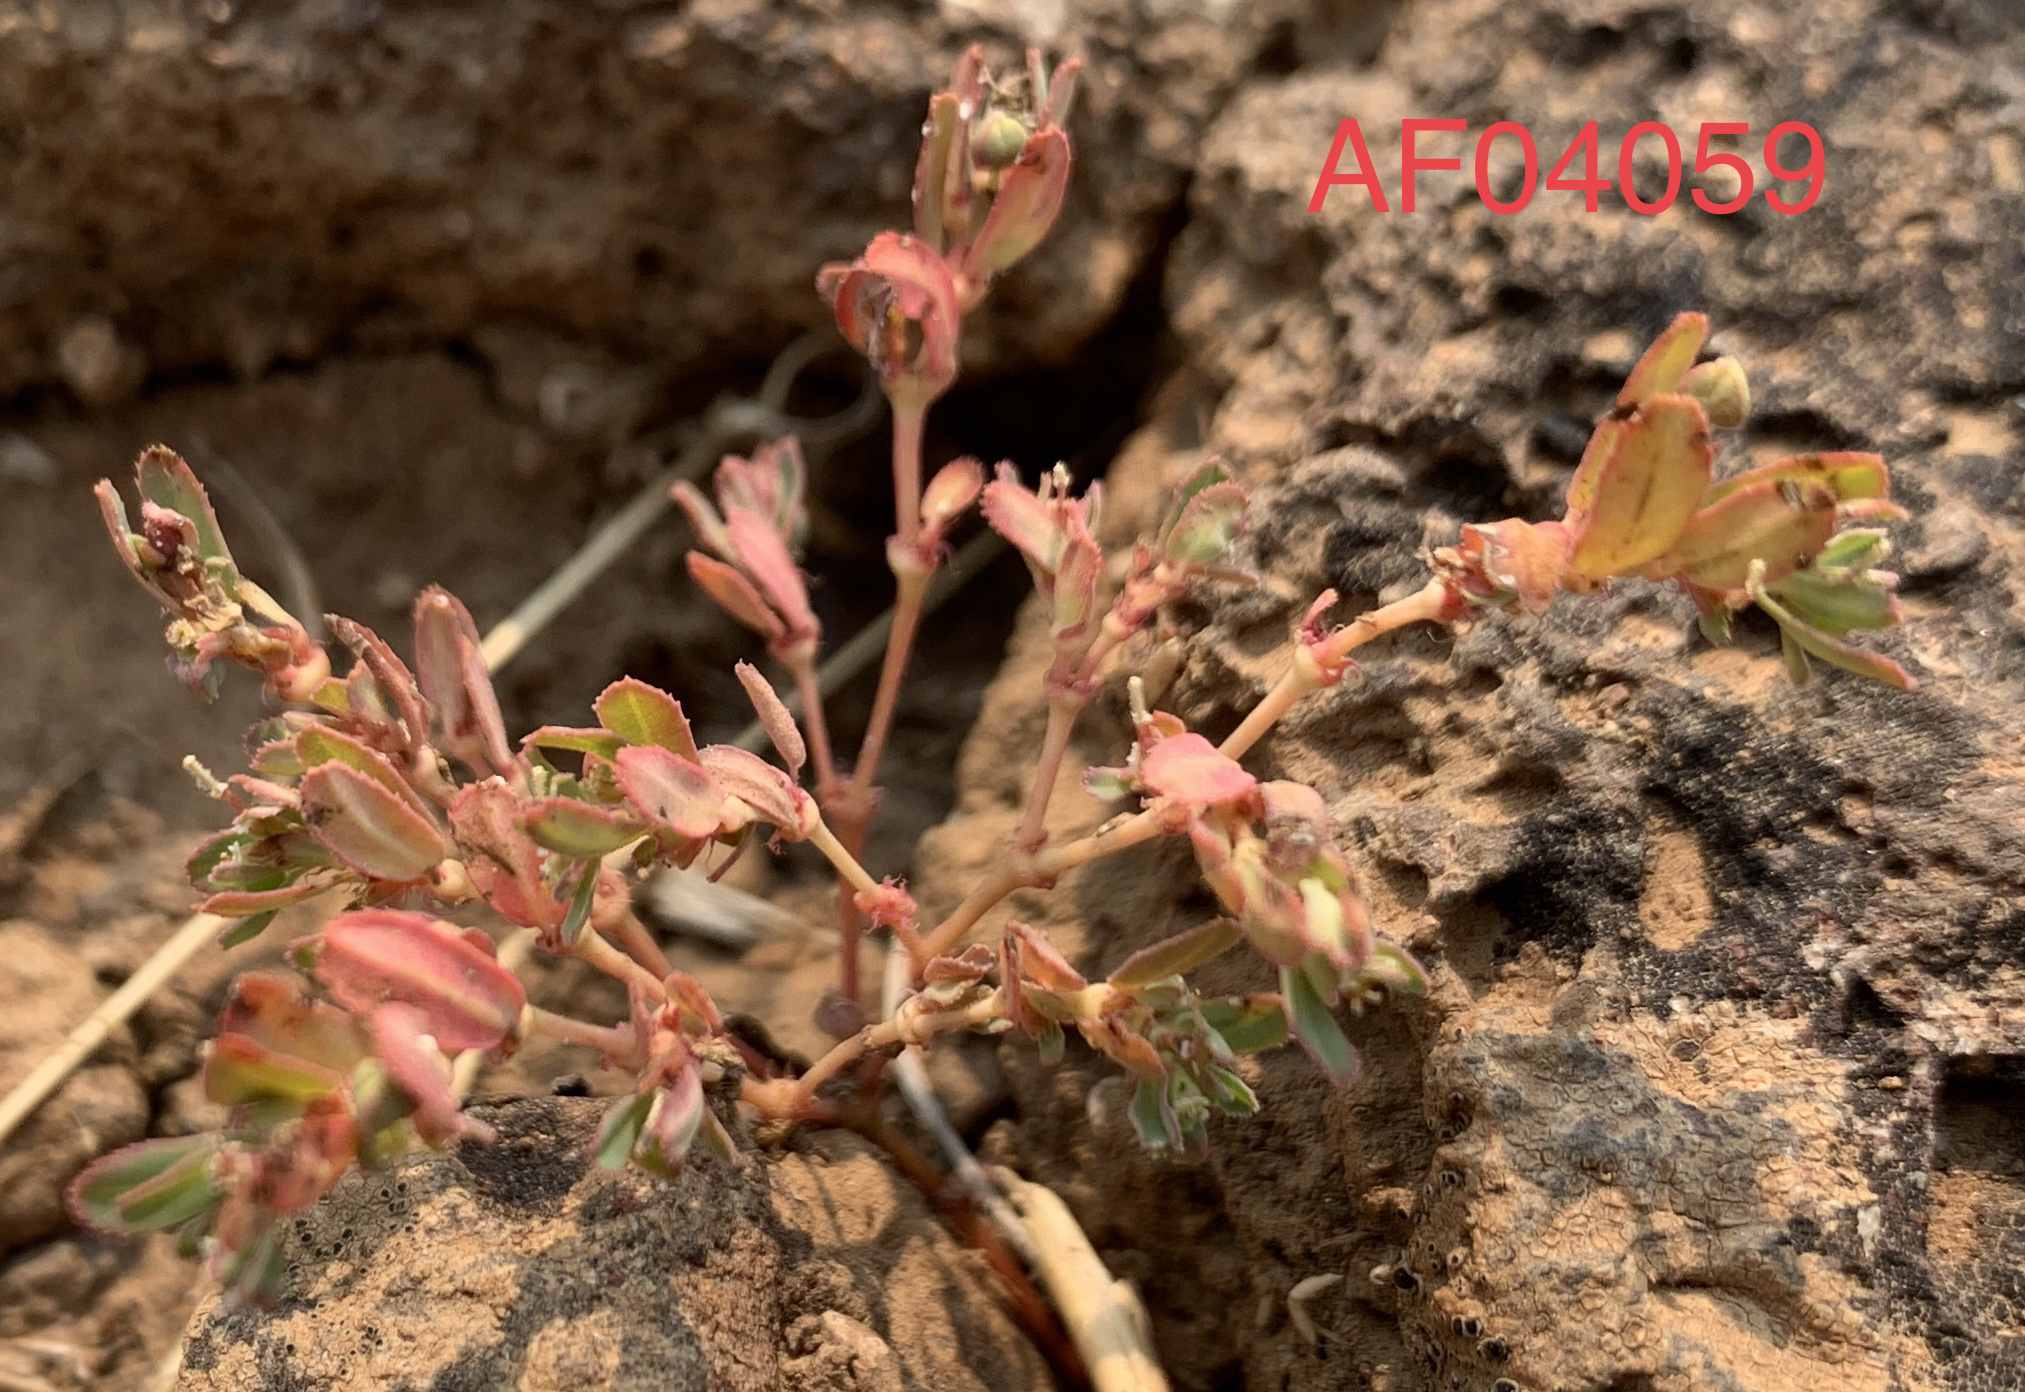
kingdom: Plantae
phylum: Tracheophyta
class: Magnoliopsida
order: Malpighiales
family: Euphorbiaceae
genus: Euphorbia
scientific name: Euphorbia serpillifolia
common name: Thyme-leaf spurge
